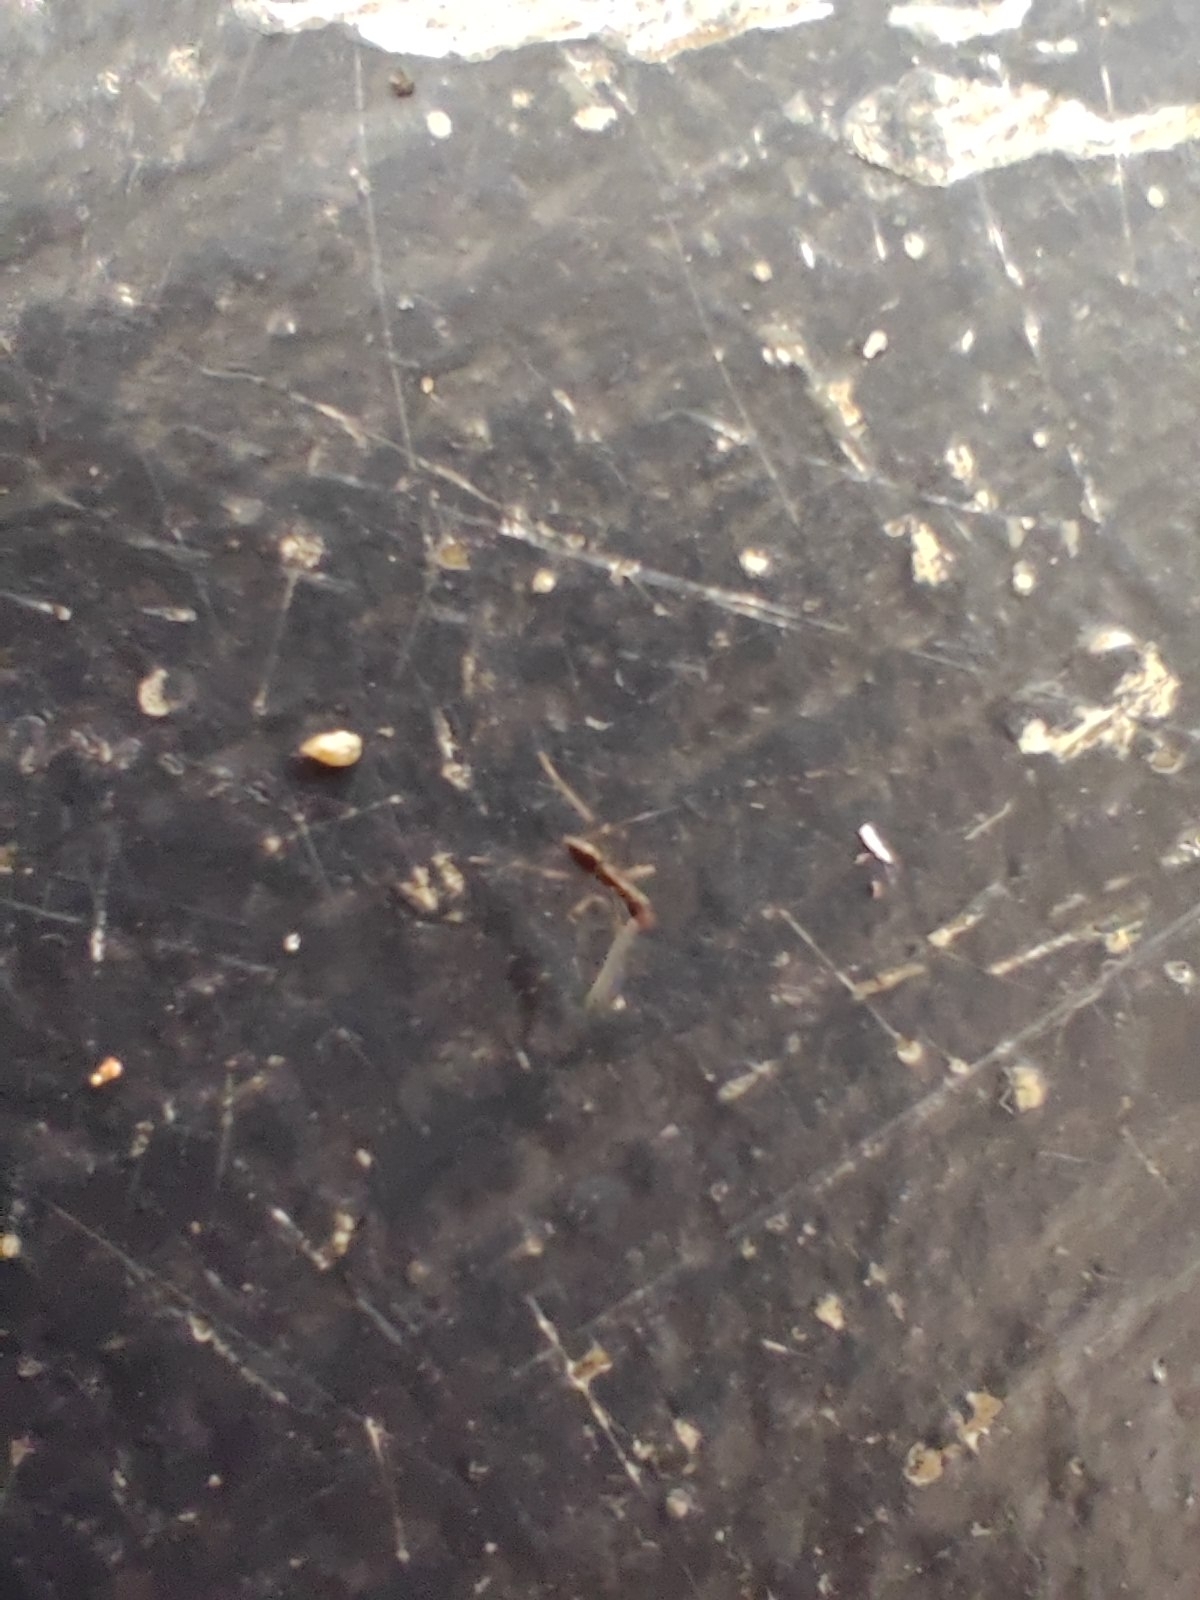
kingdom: Animalia
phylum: Arthropoda
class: Insecta
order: Hymenoptera
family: Formicidae
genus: Paratrechina
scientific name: Paratrechina longicornis
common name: Longhorned crazy ant
